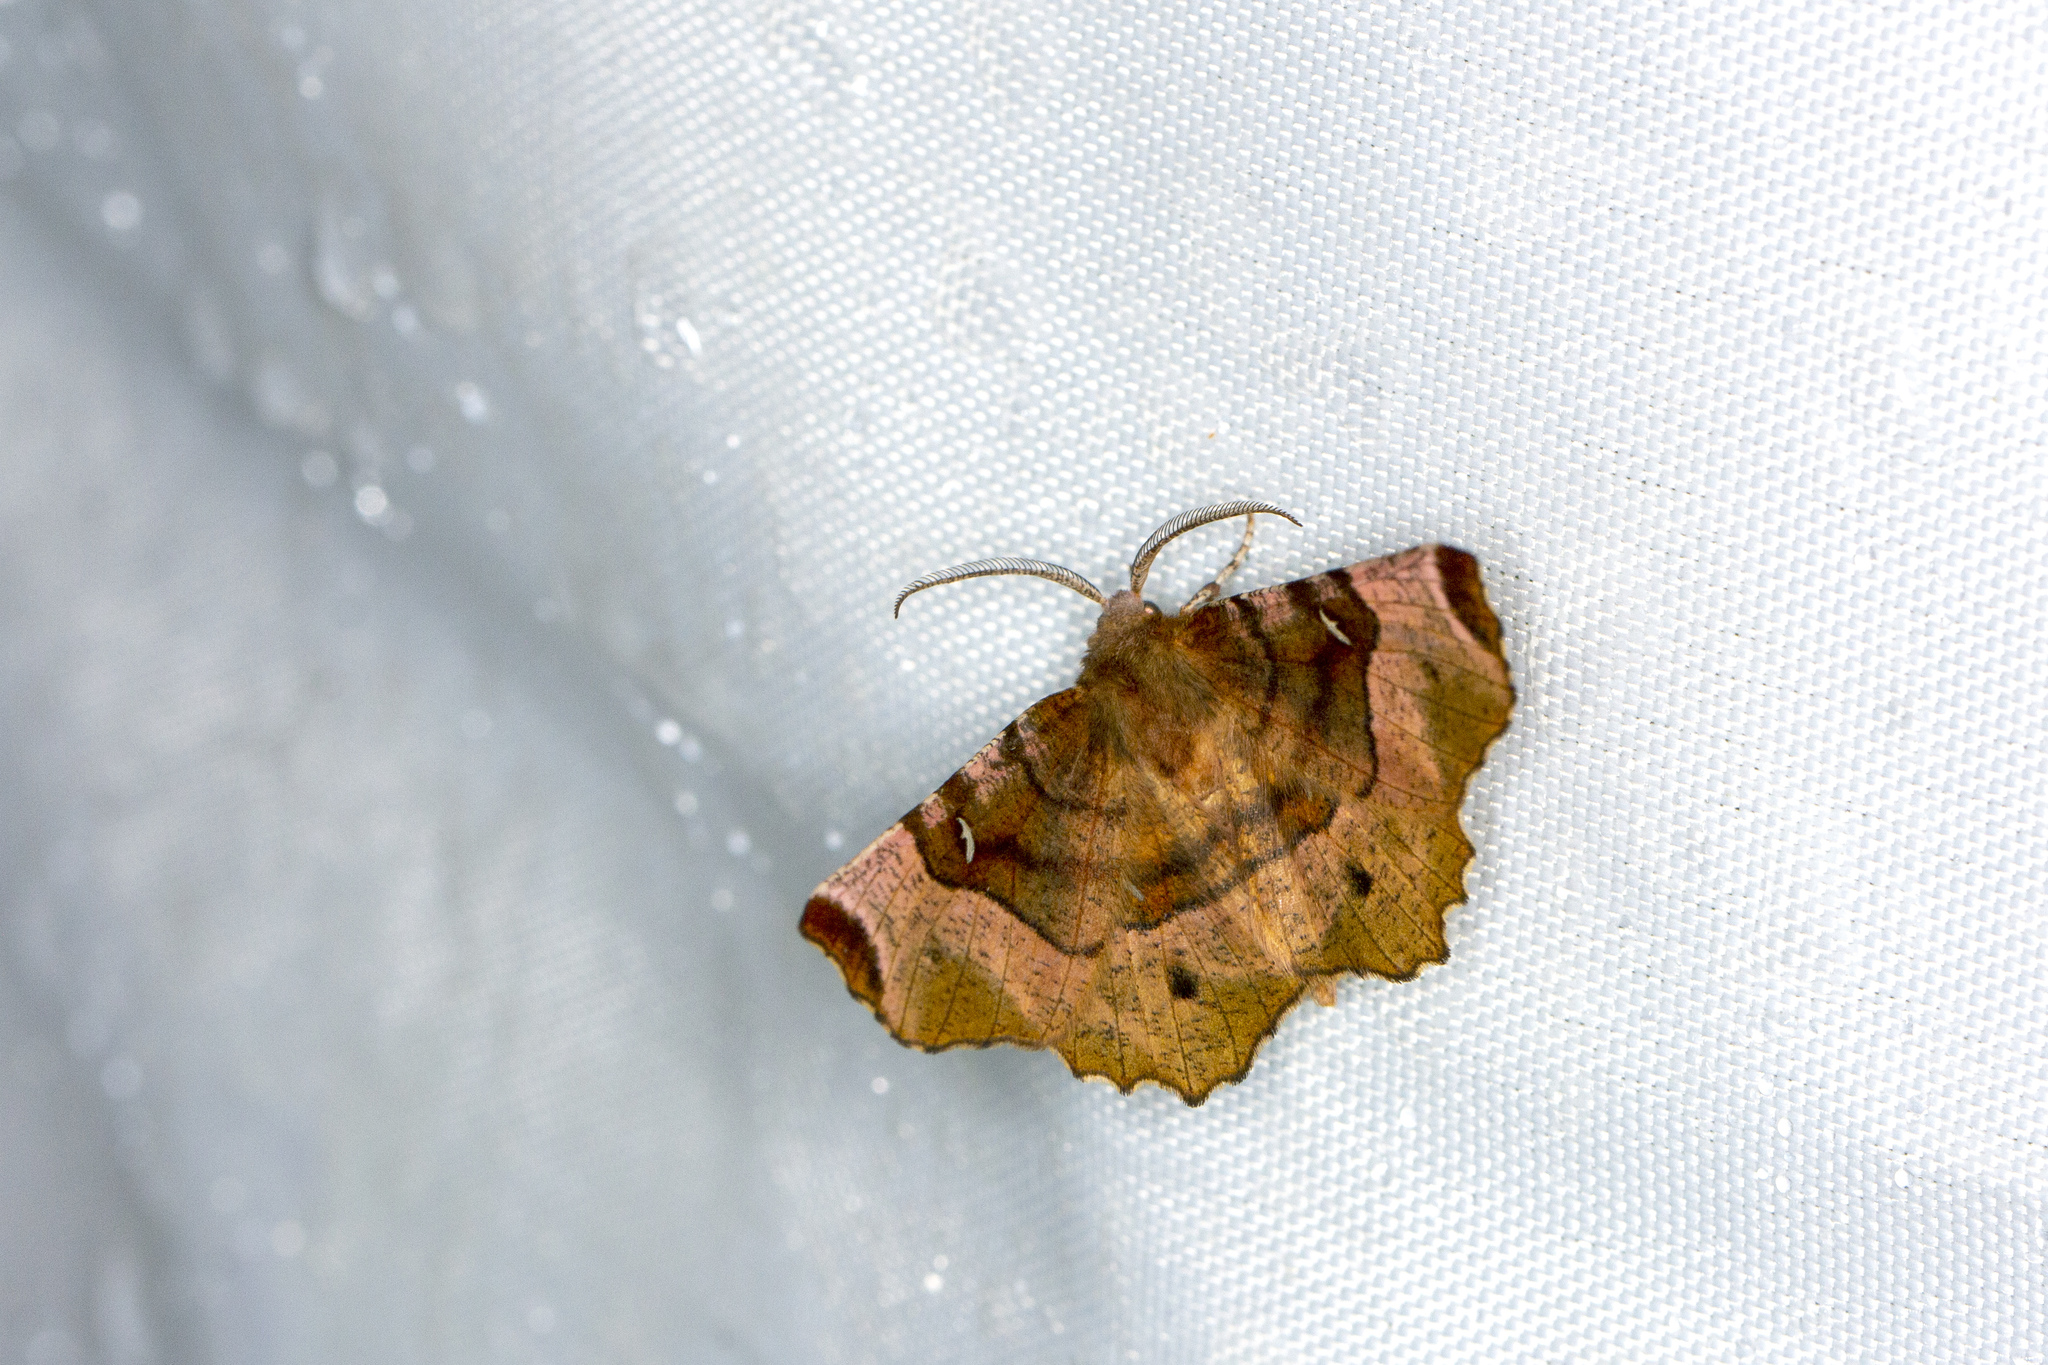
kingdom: Animalia
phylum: Arthropoda
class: Insecta
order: Lepidoptera
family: Geometridae
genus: Selenia
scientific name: Selenia tetralunaria
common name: Purple thorn
